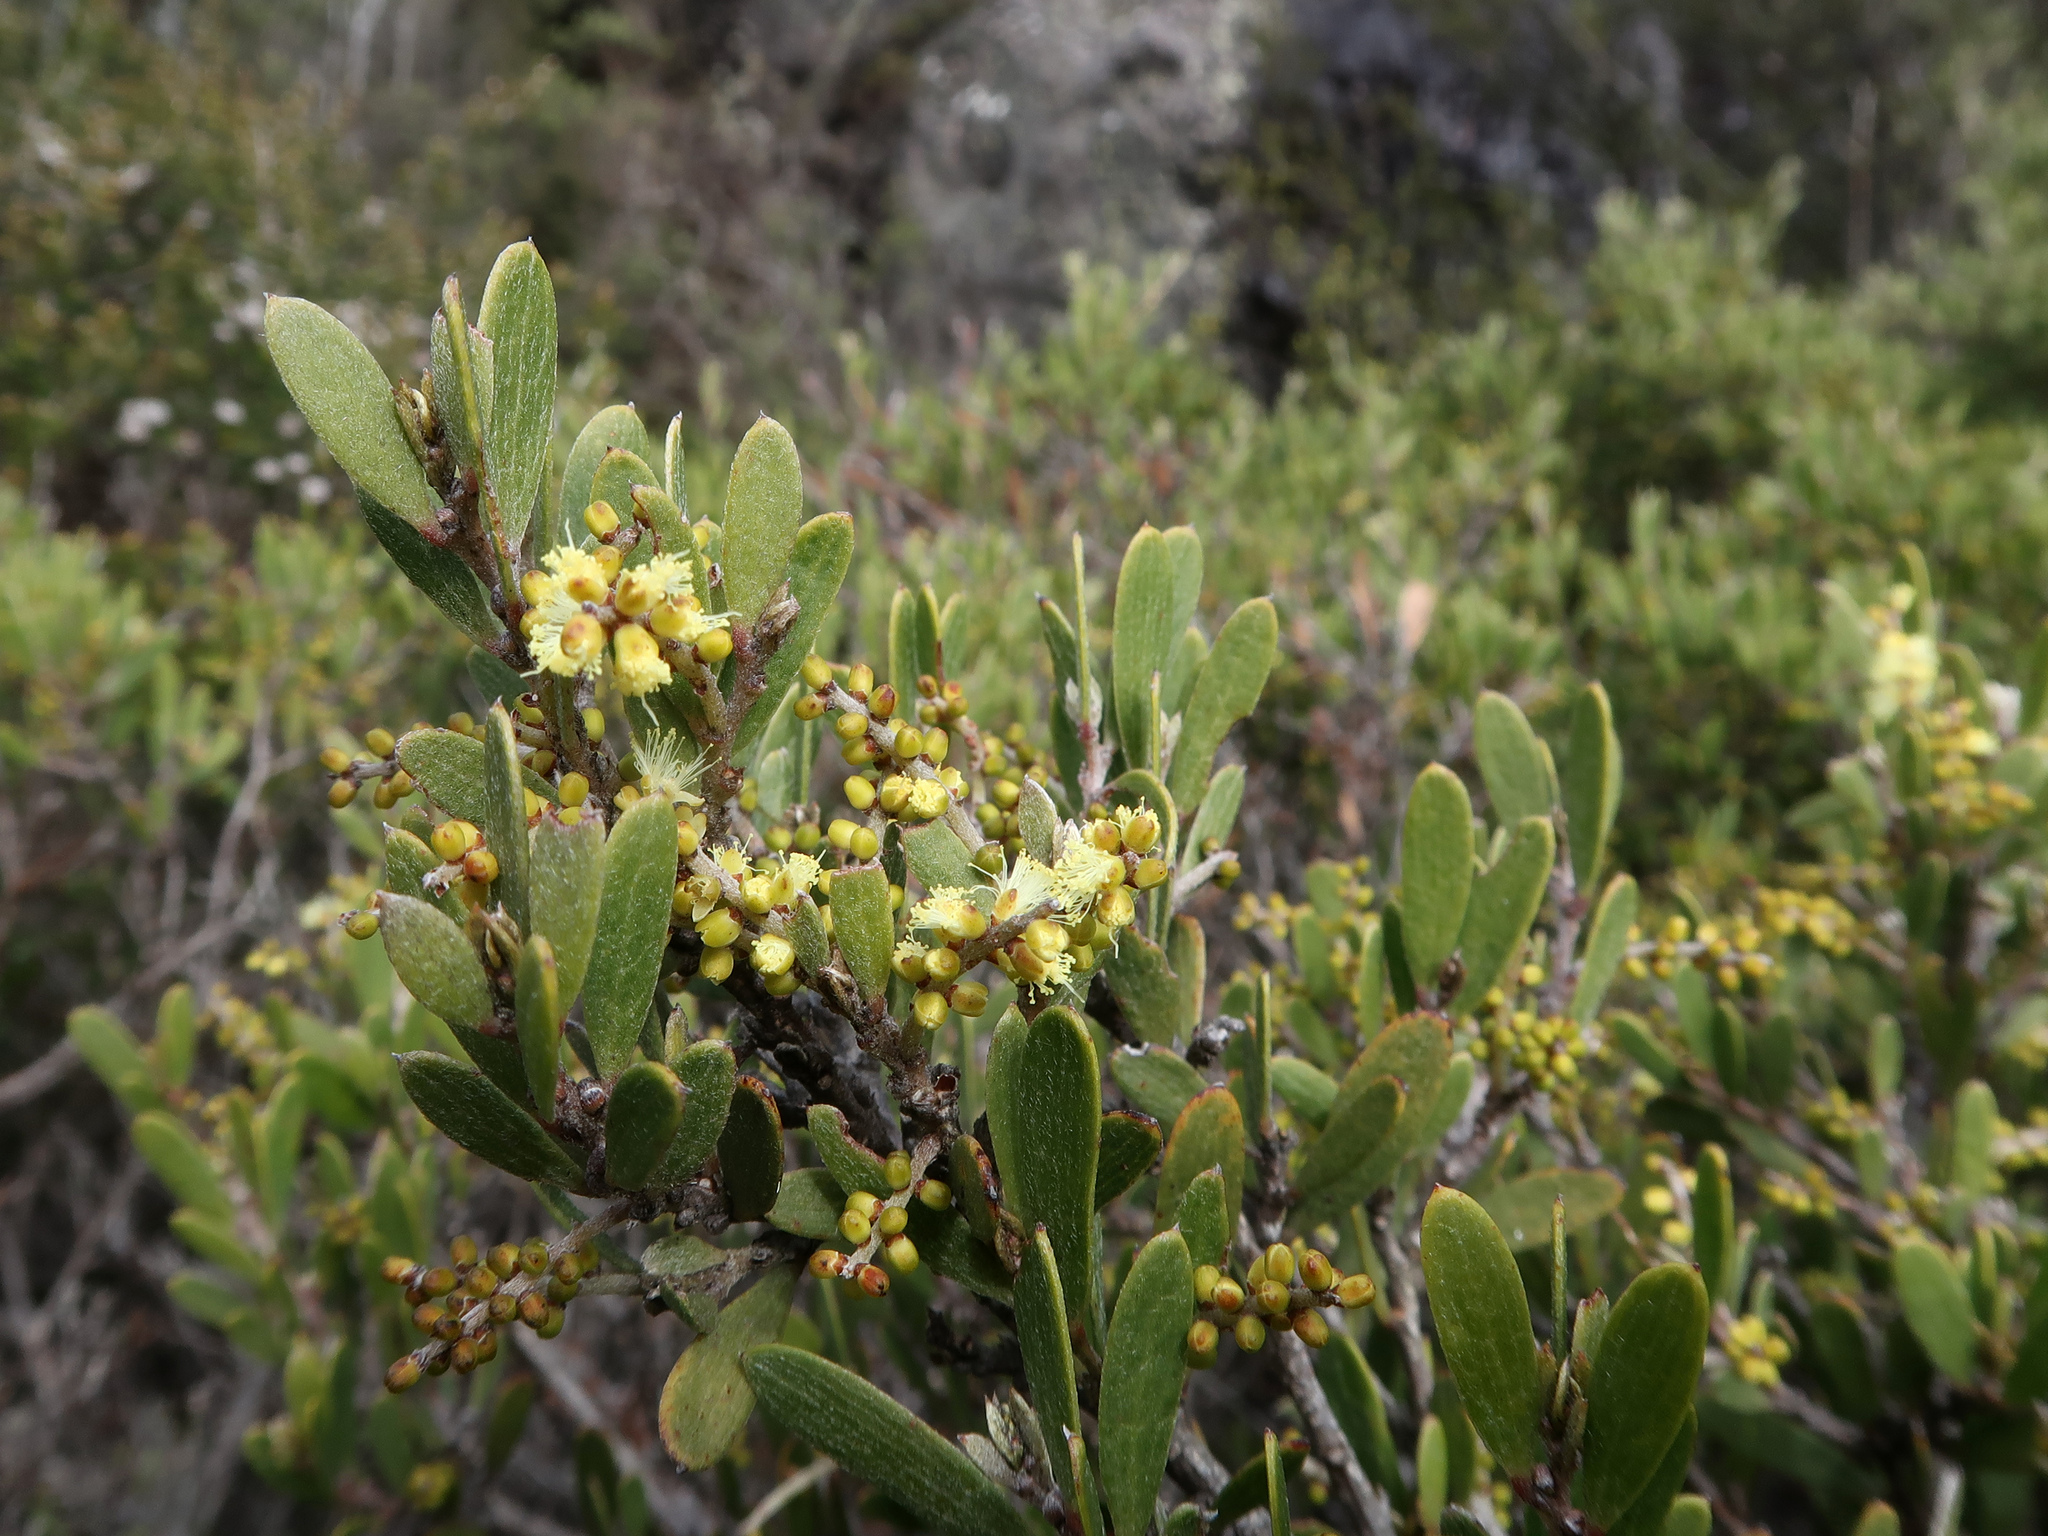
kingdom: Plantae
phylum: Tracheophyta
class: Magnoliopsida
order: Fabales
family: Fabaceae
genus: Acacia
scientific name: Acacia mucronata
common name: Variable sallow wattle
